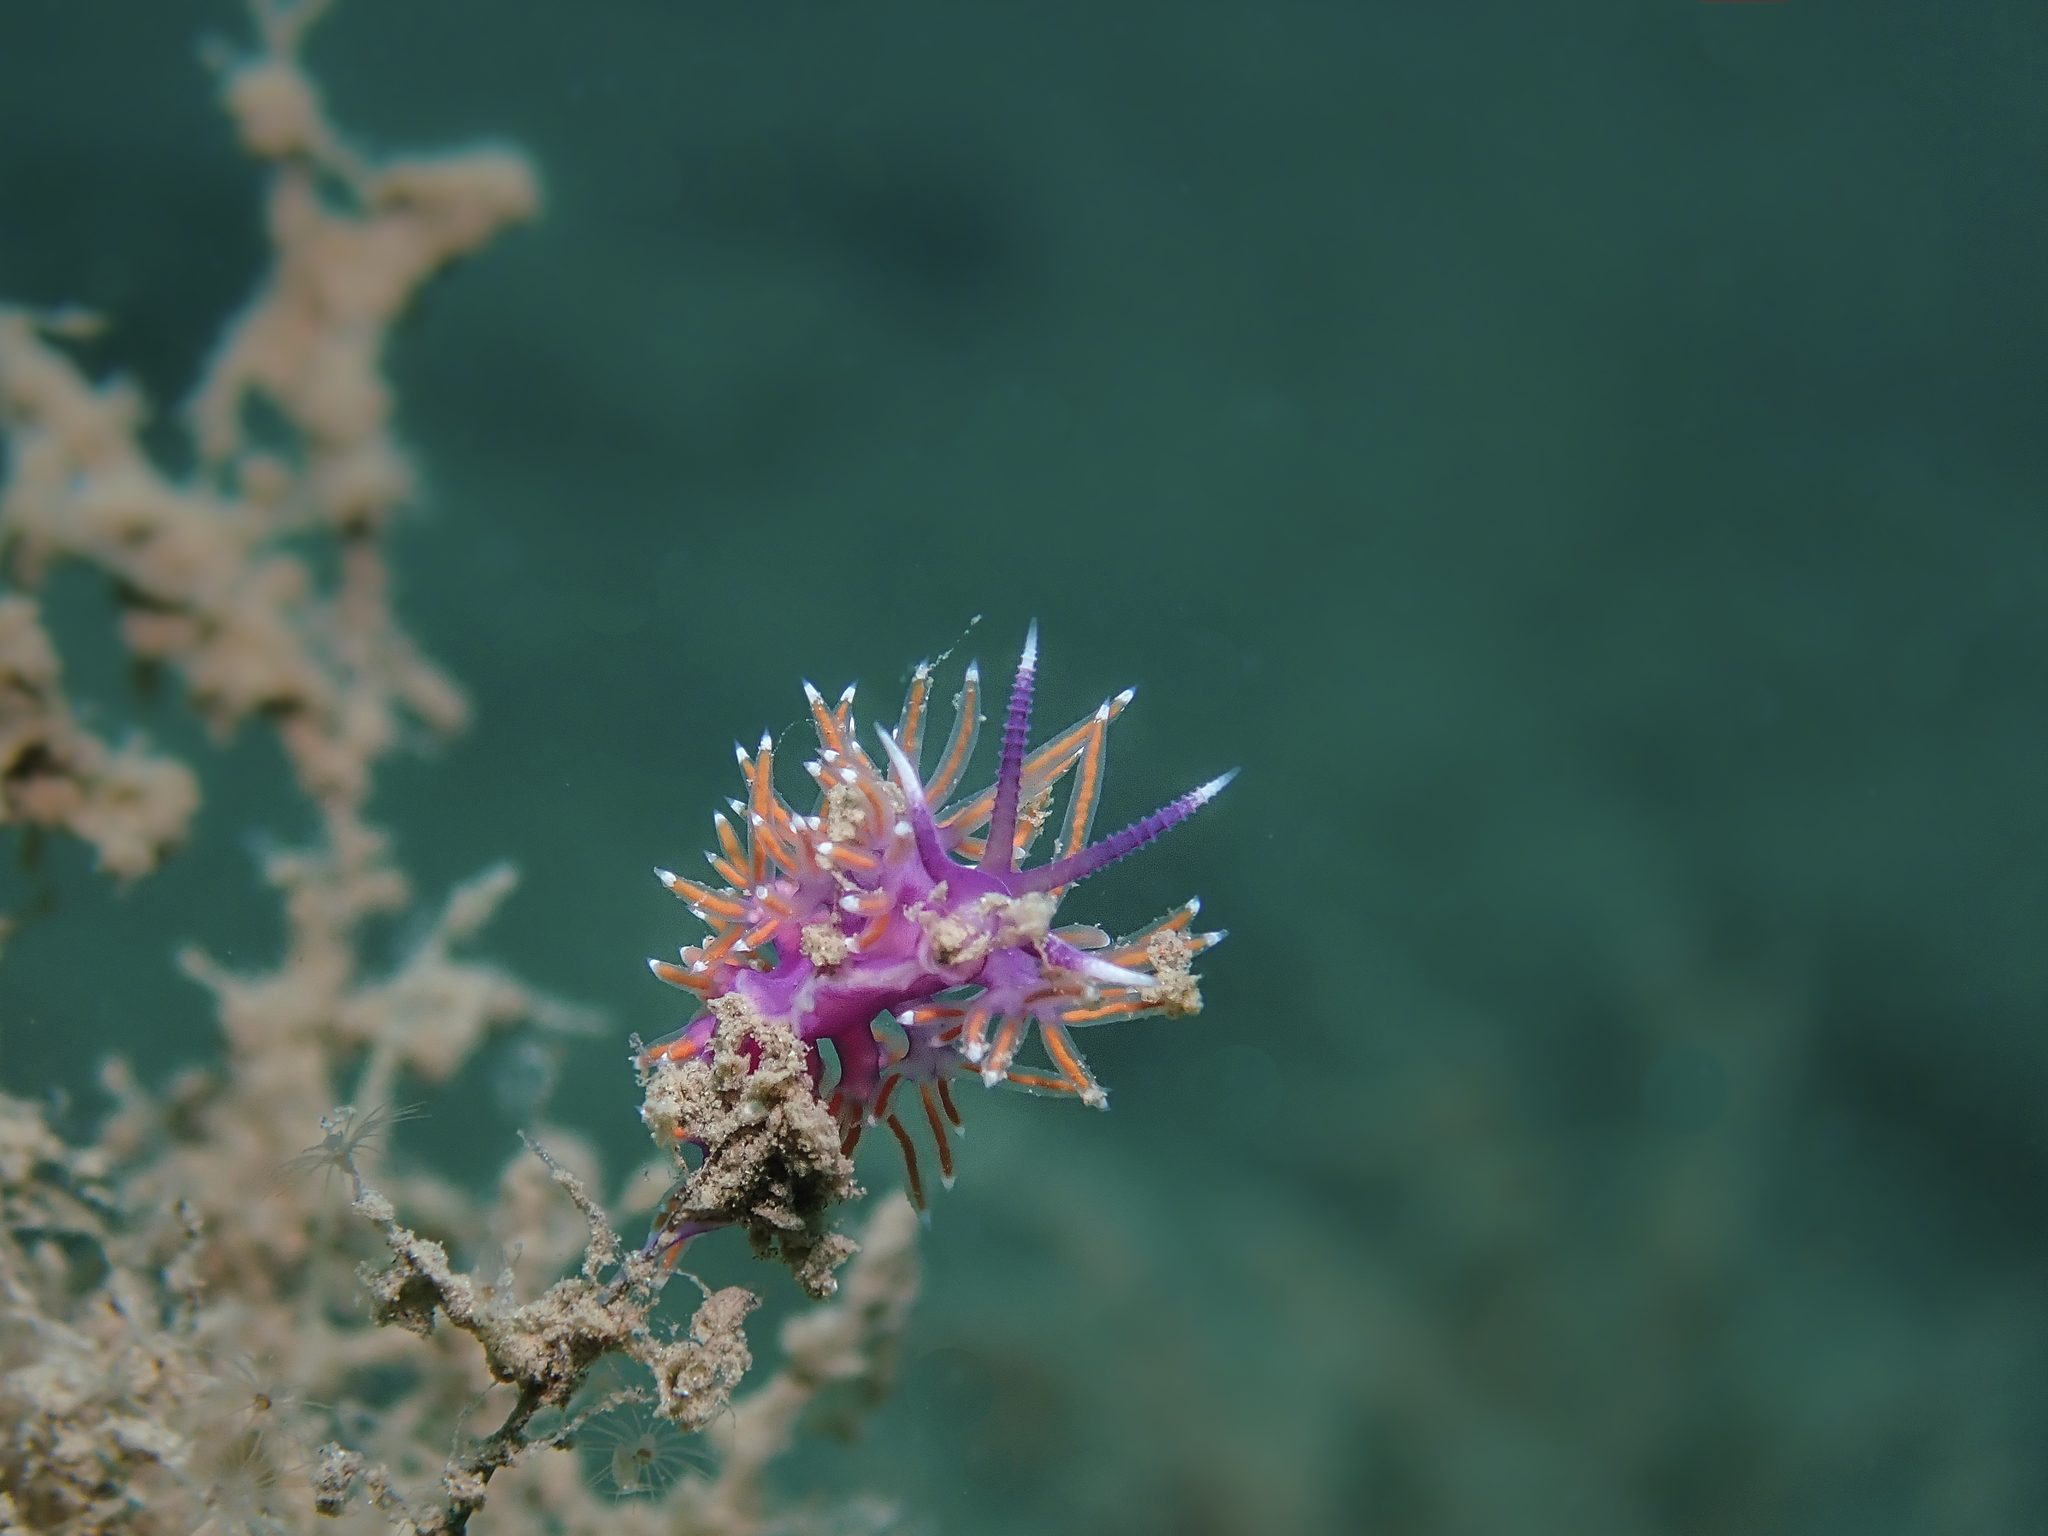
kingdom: Animalia
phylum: Mollusca
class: Gastropoda
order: Nudibranchia
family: Flabellinidae
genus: Paraflabellina
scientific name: Paraflabellina ischitana
